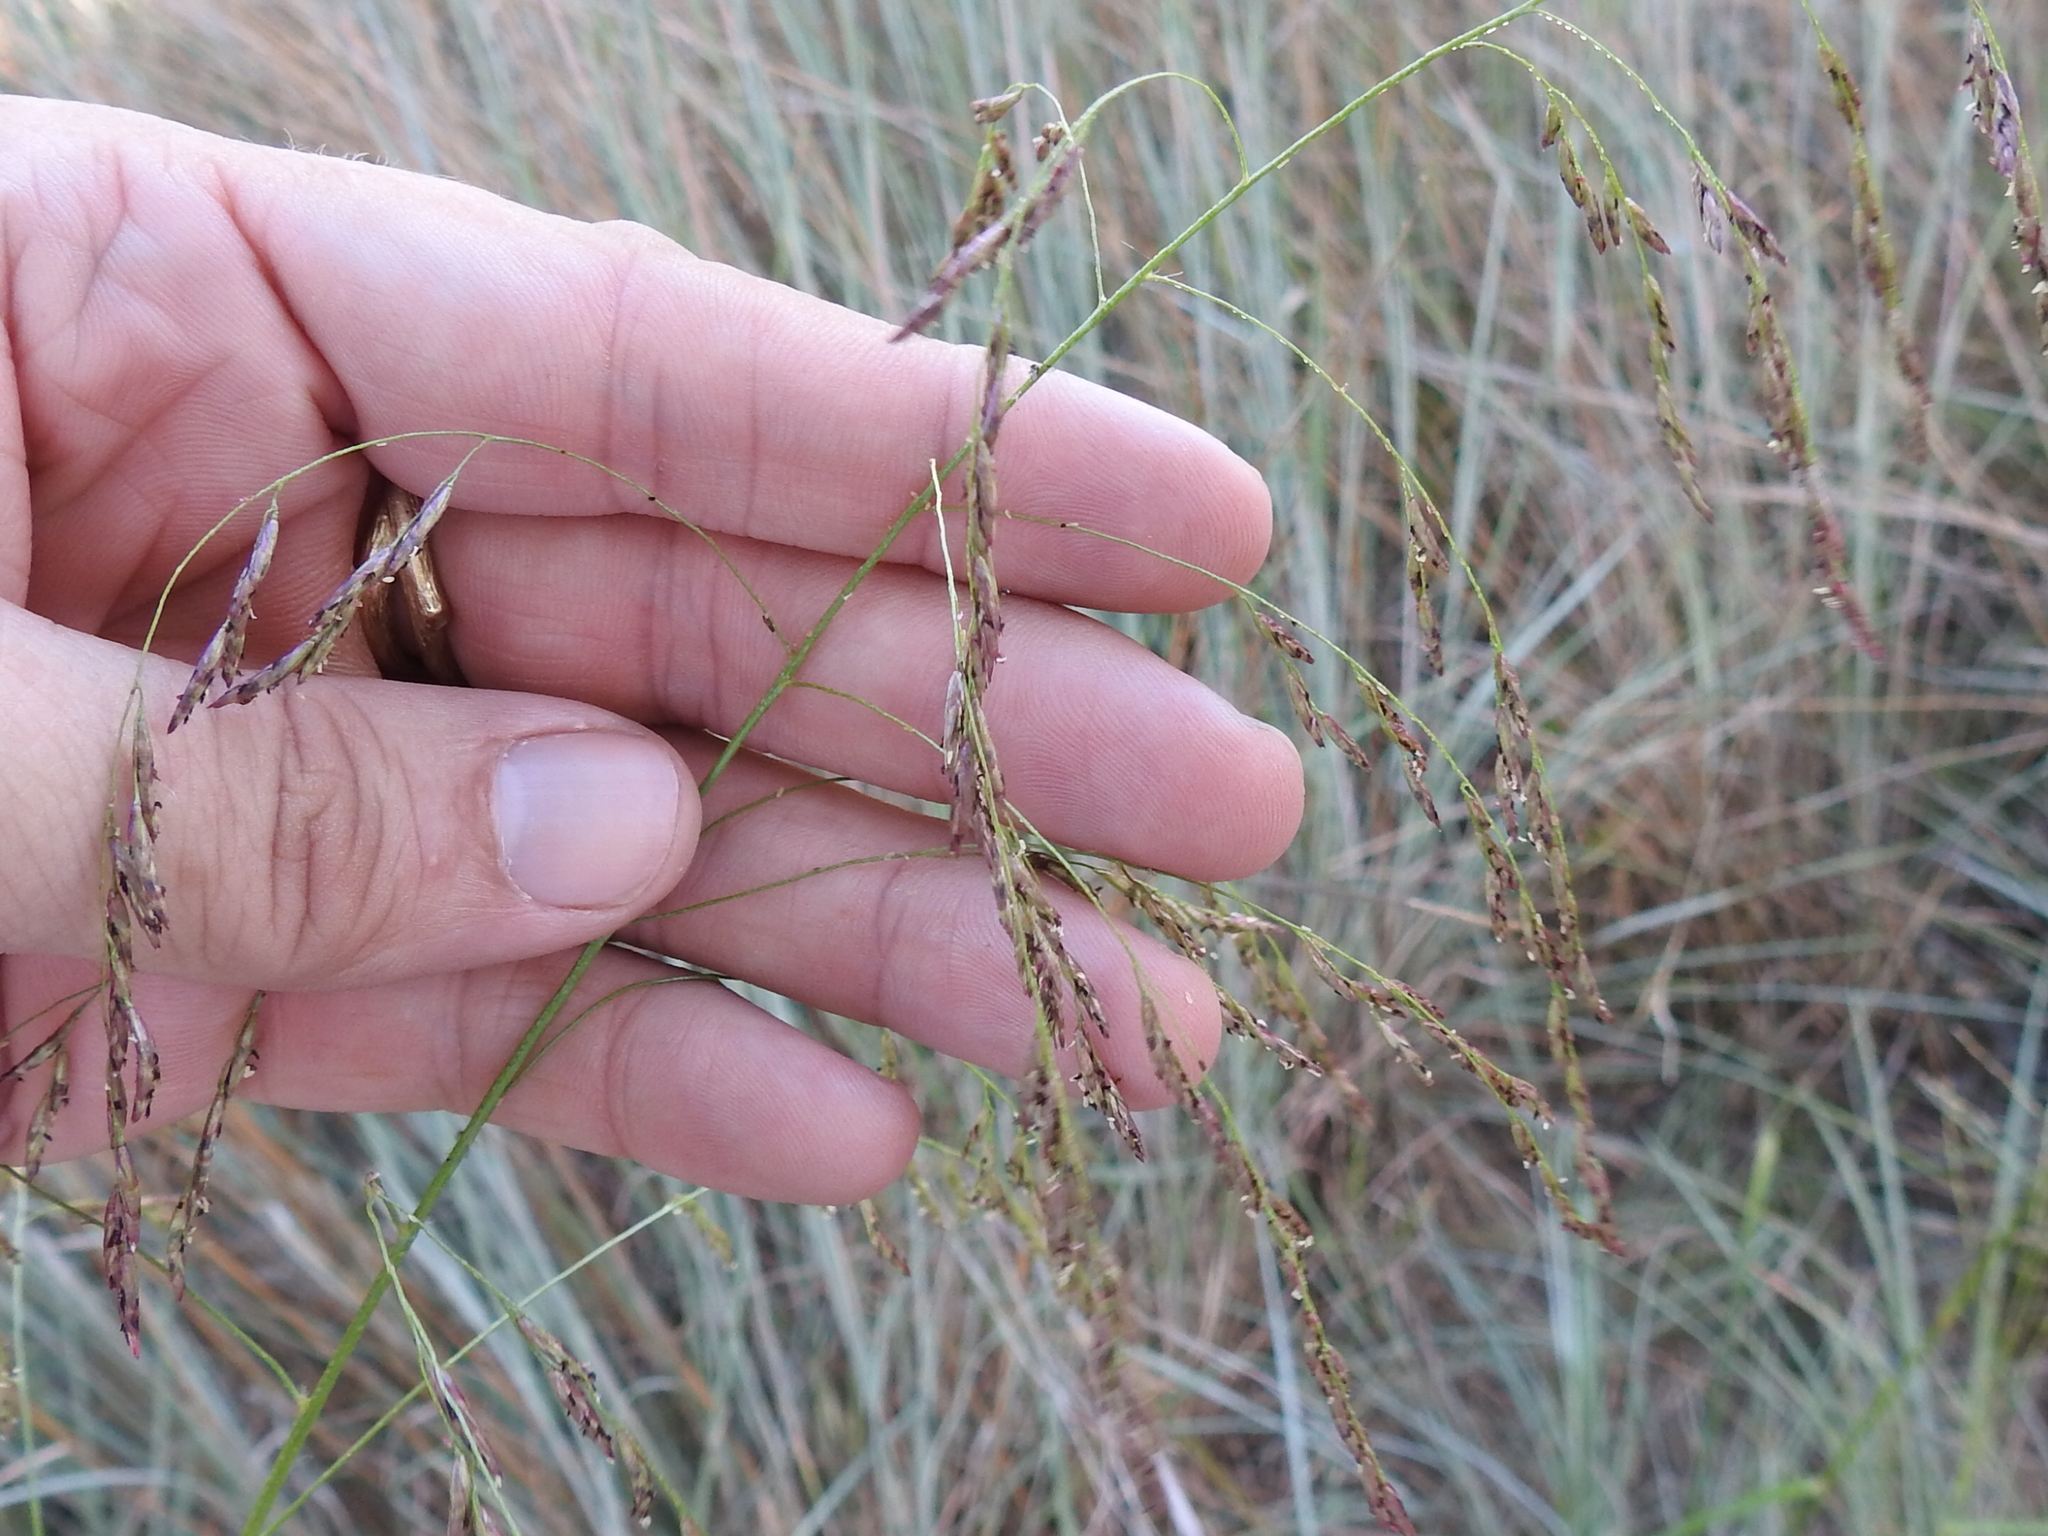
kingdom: Plantae
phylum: Tracheophyta
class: Liliopsida
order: Poales
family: Poaceae
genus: Tridens
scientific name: Tridens flavus
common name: Purpletop
